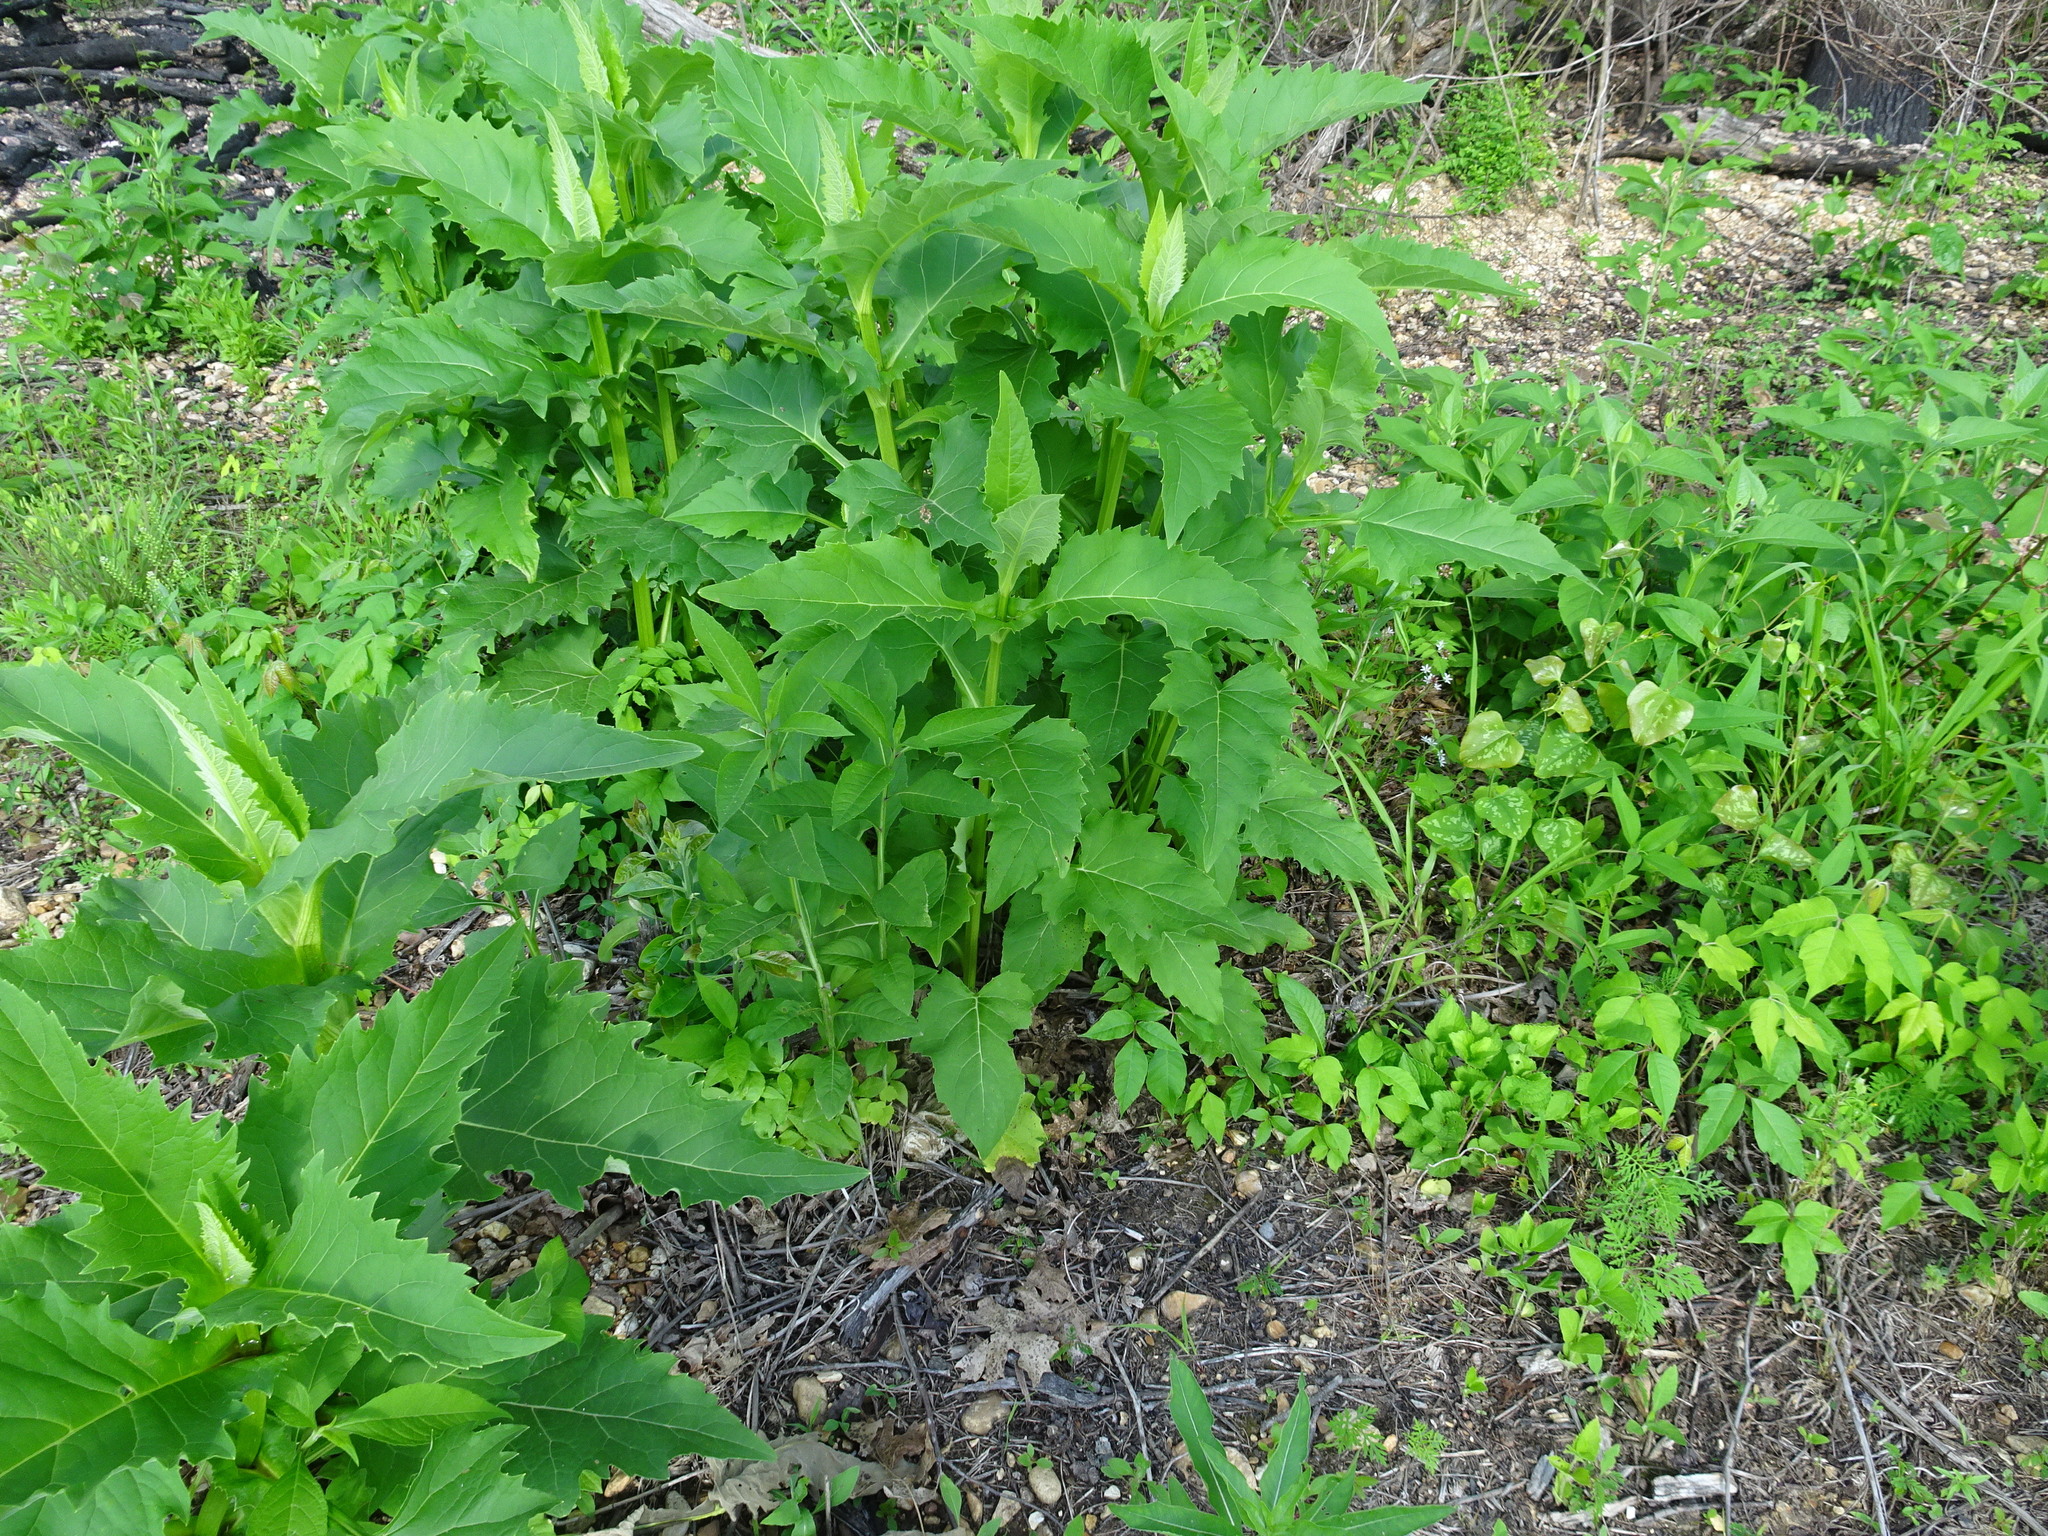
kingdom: Plantae
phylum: Tracheophyta
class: Magnoliopsida
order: Asterales
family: Asteraceae
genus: Silphium
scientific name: Silphium perfoliatum
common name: Cup-plant
